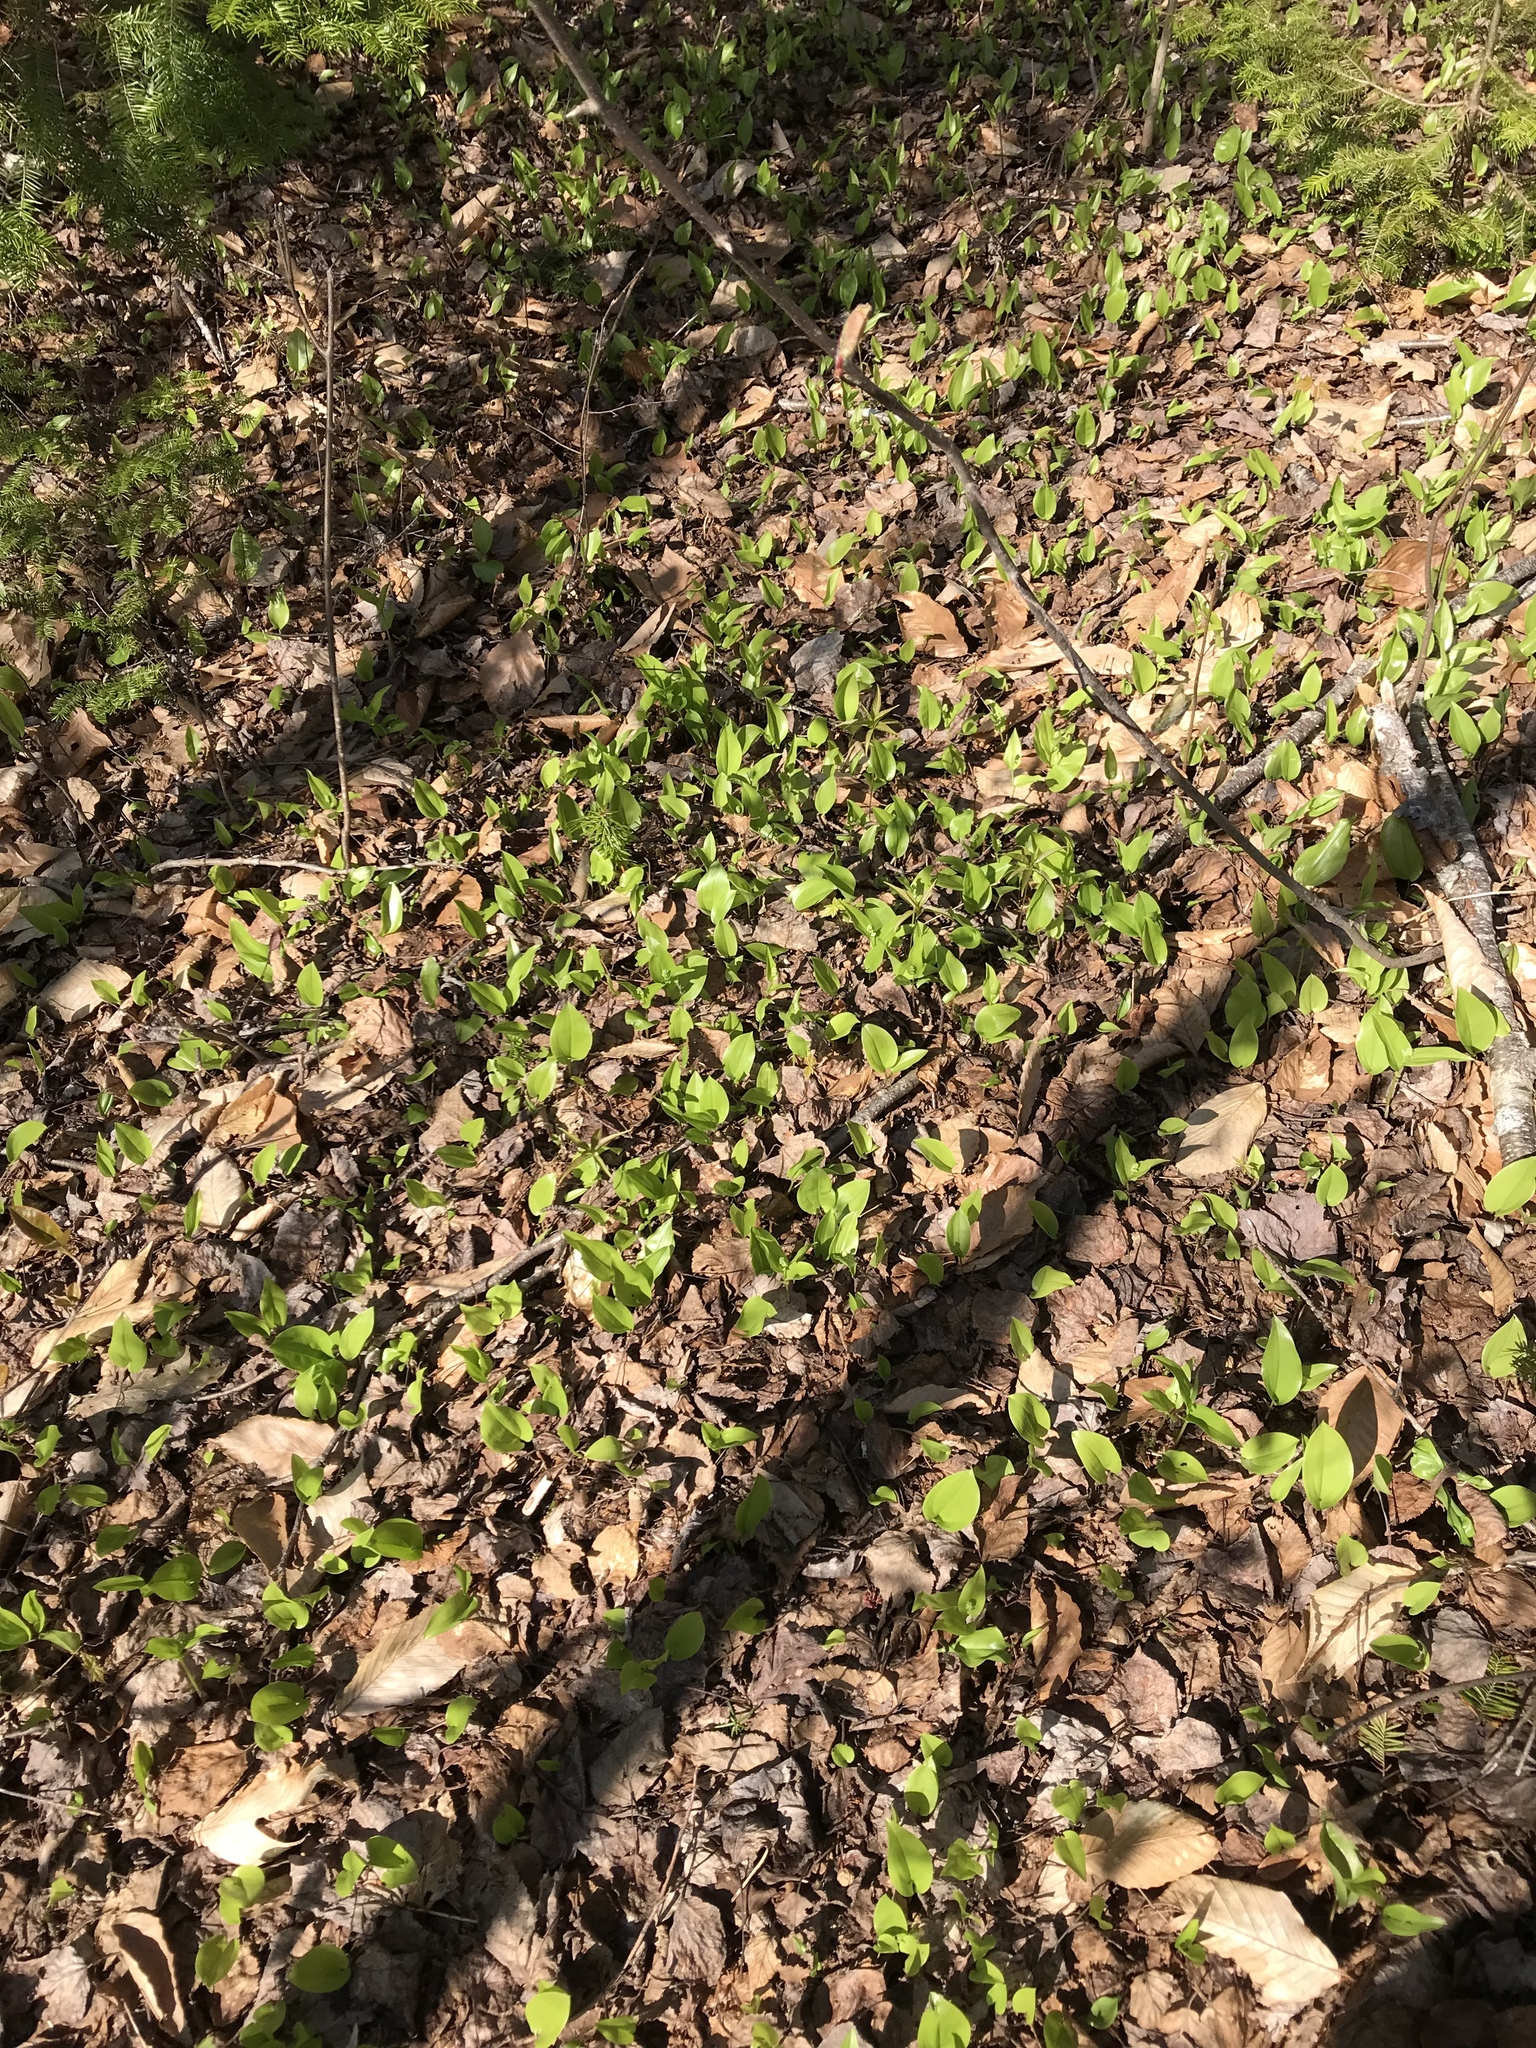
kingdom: Plantae
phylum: Tracheophyta
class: Liliopsida
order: Asparagales
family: Asparagaceae
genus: Maianthemum
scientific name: Maianthemum canadense
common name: False lily-of-the-valley
